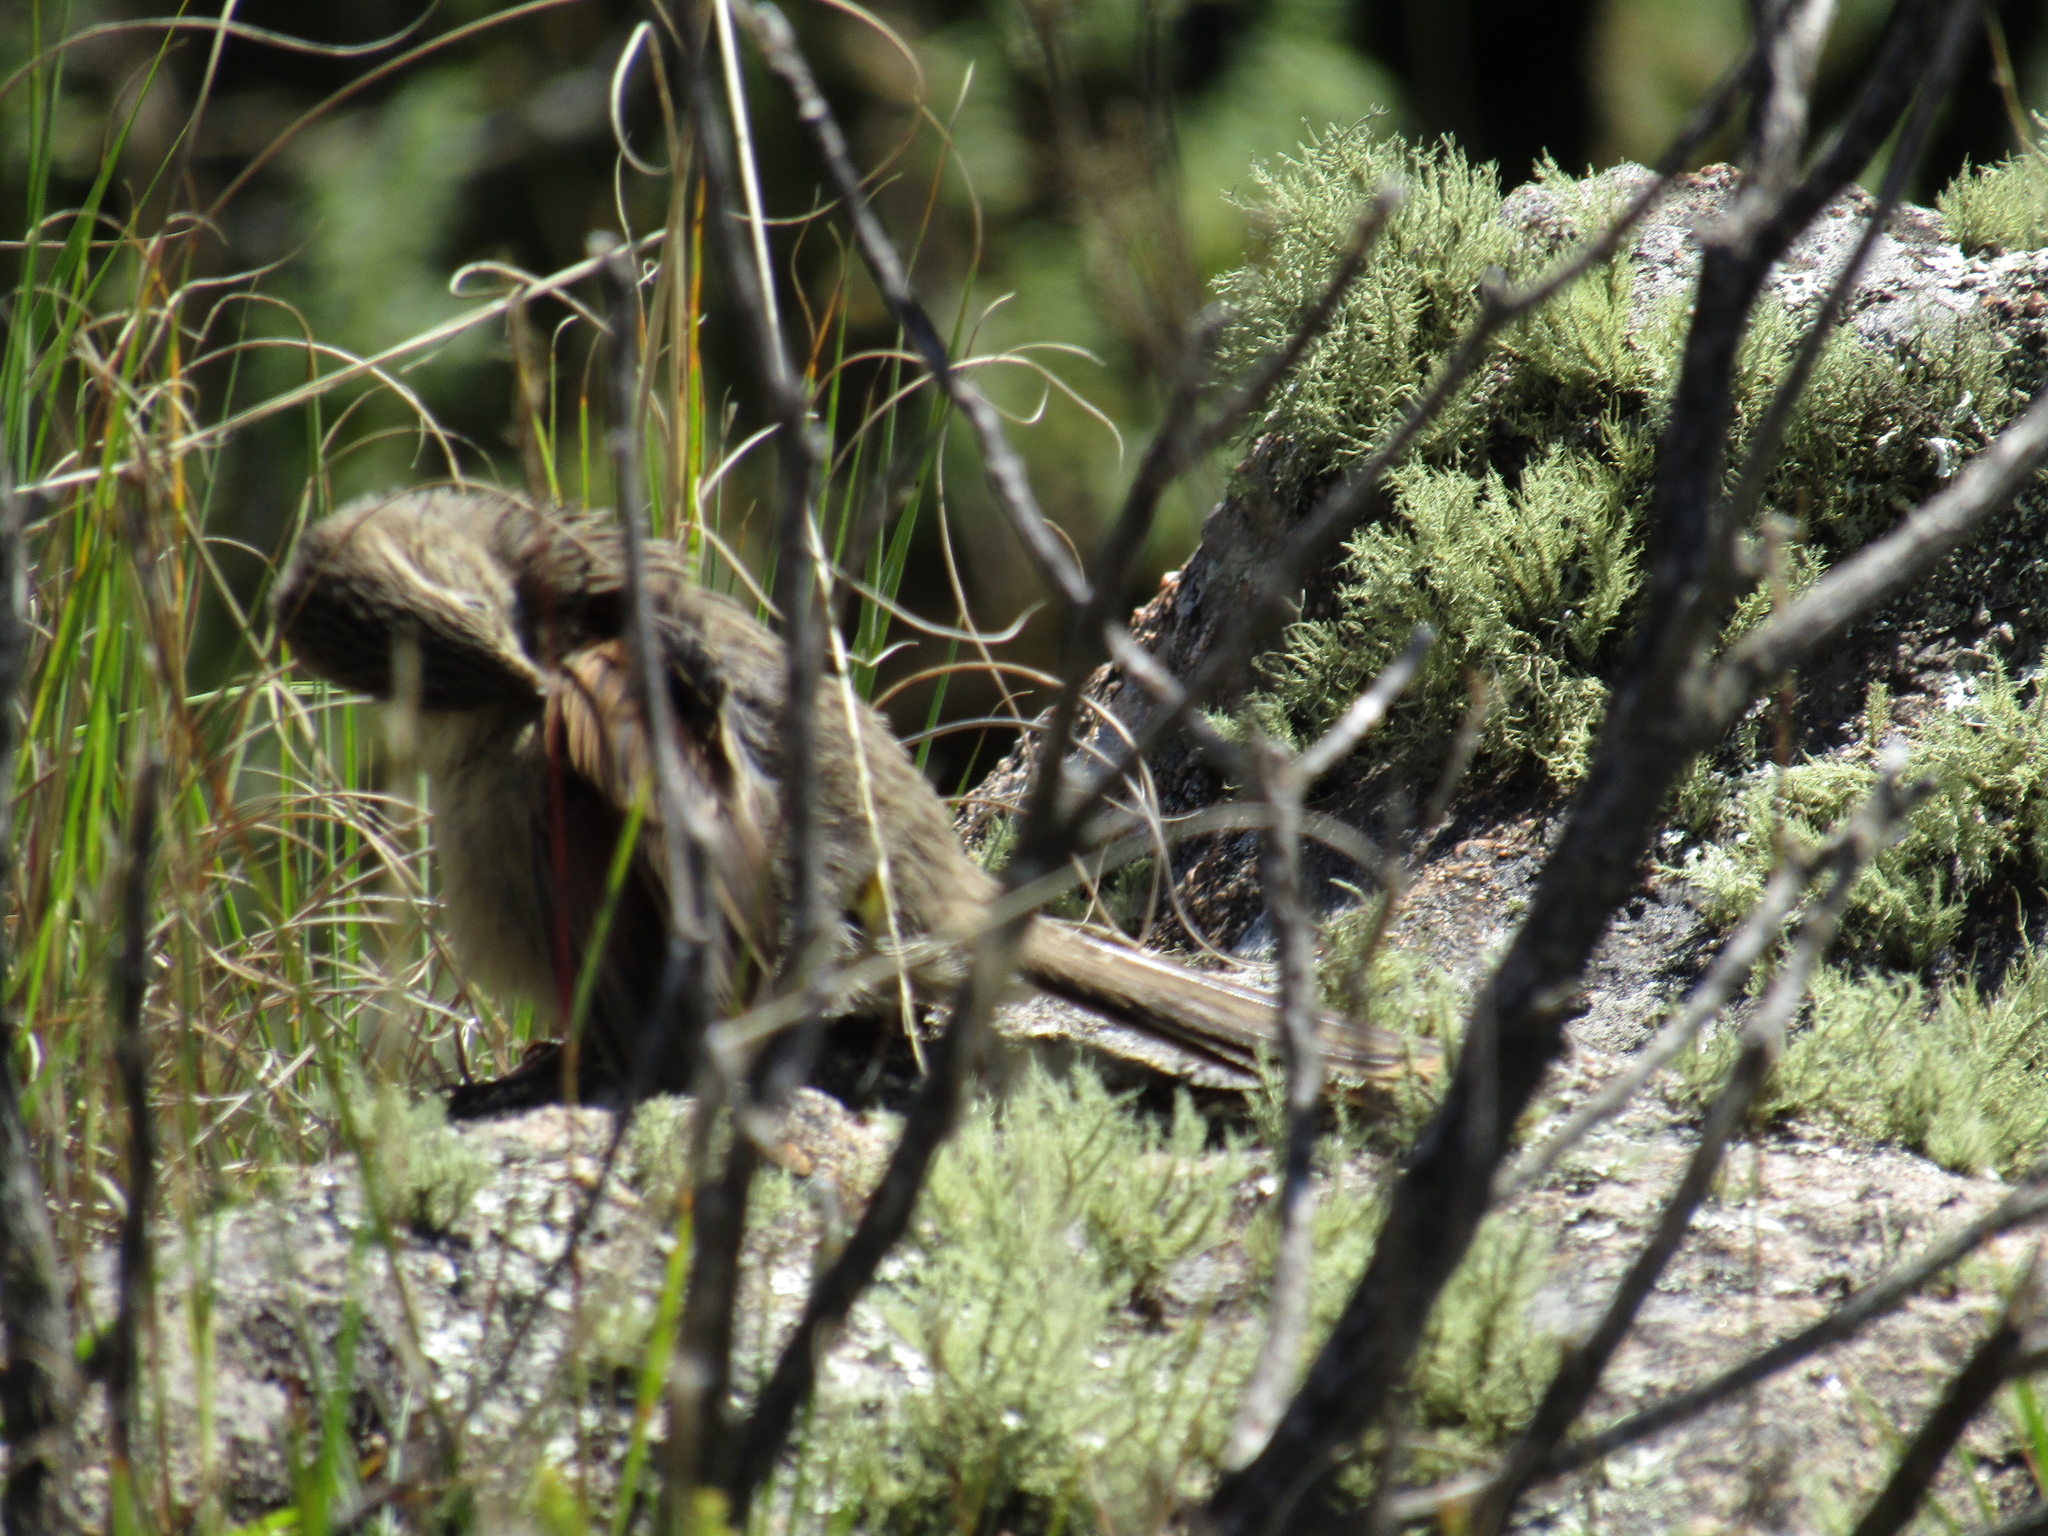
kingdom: Animalia
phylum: Chordata
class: Aves
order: Passeriformes
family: Furnariidae
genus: Asthenes
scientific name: Asthenes wyatti
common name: Streak-backed canastero
